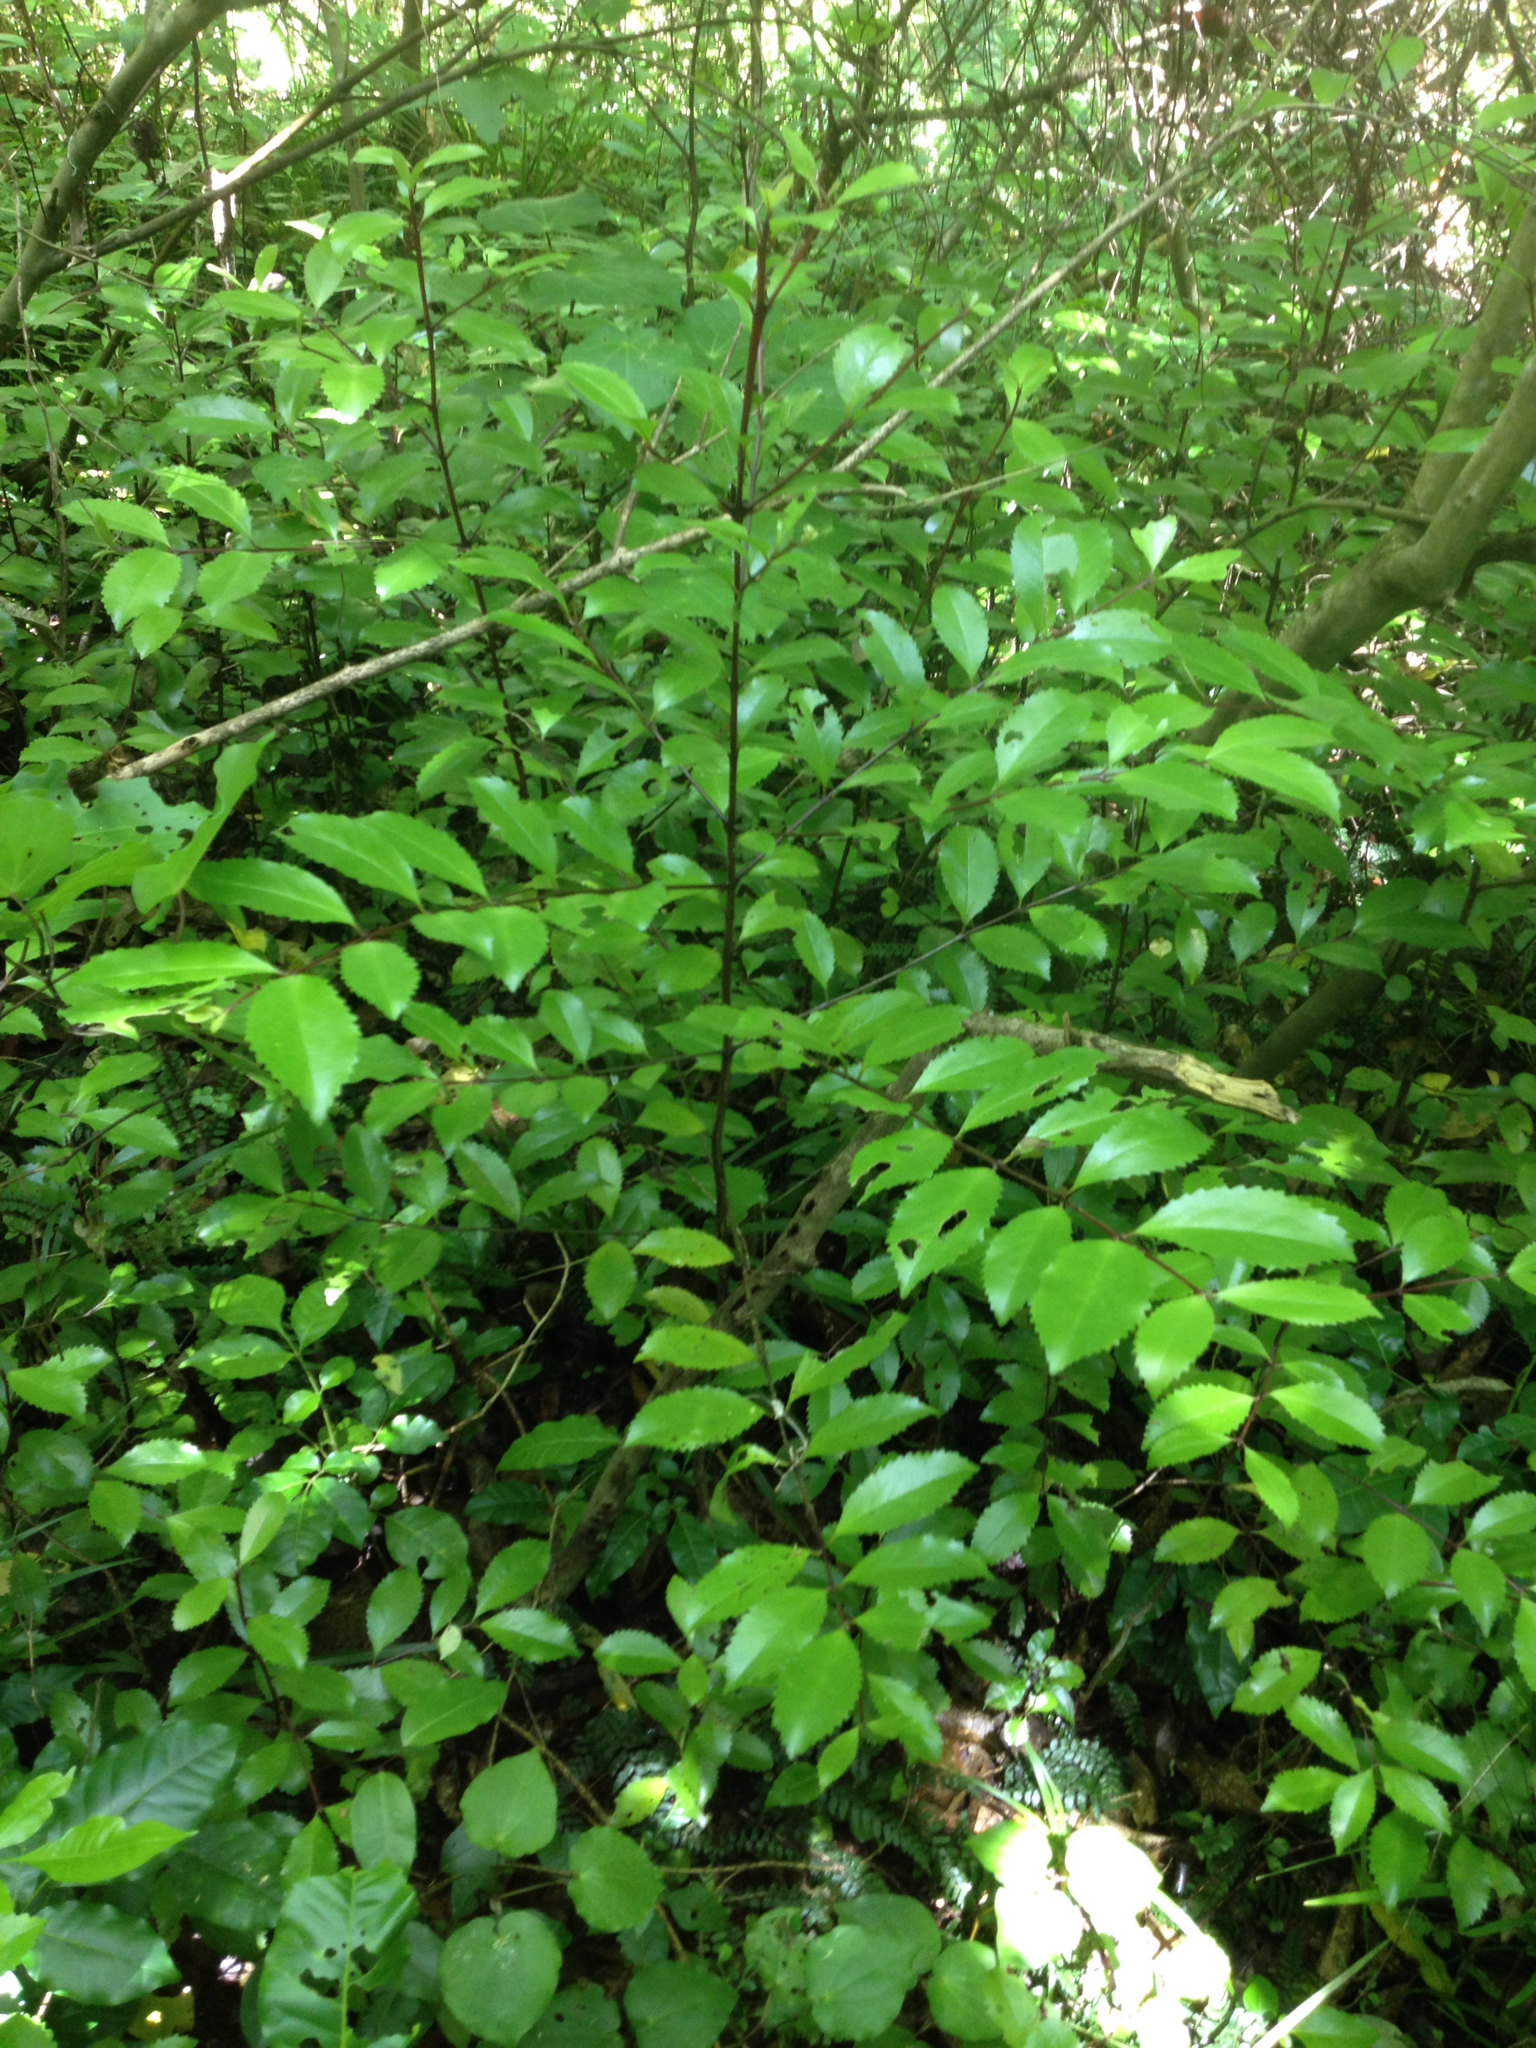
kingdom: Plantae
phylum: Tracheophyta
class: Magnoliopsida
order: Laurales
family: Atherospermataceae
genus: Laurelia
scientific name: Laurelia novae-zelandiae
